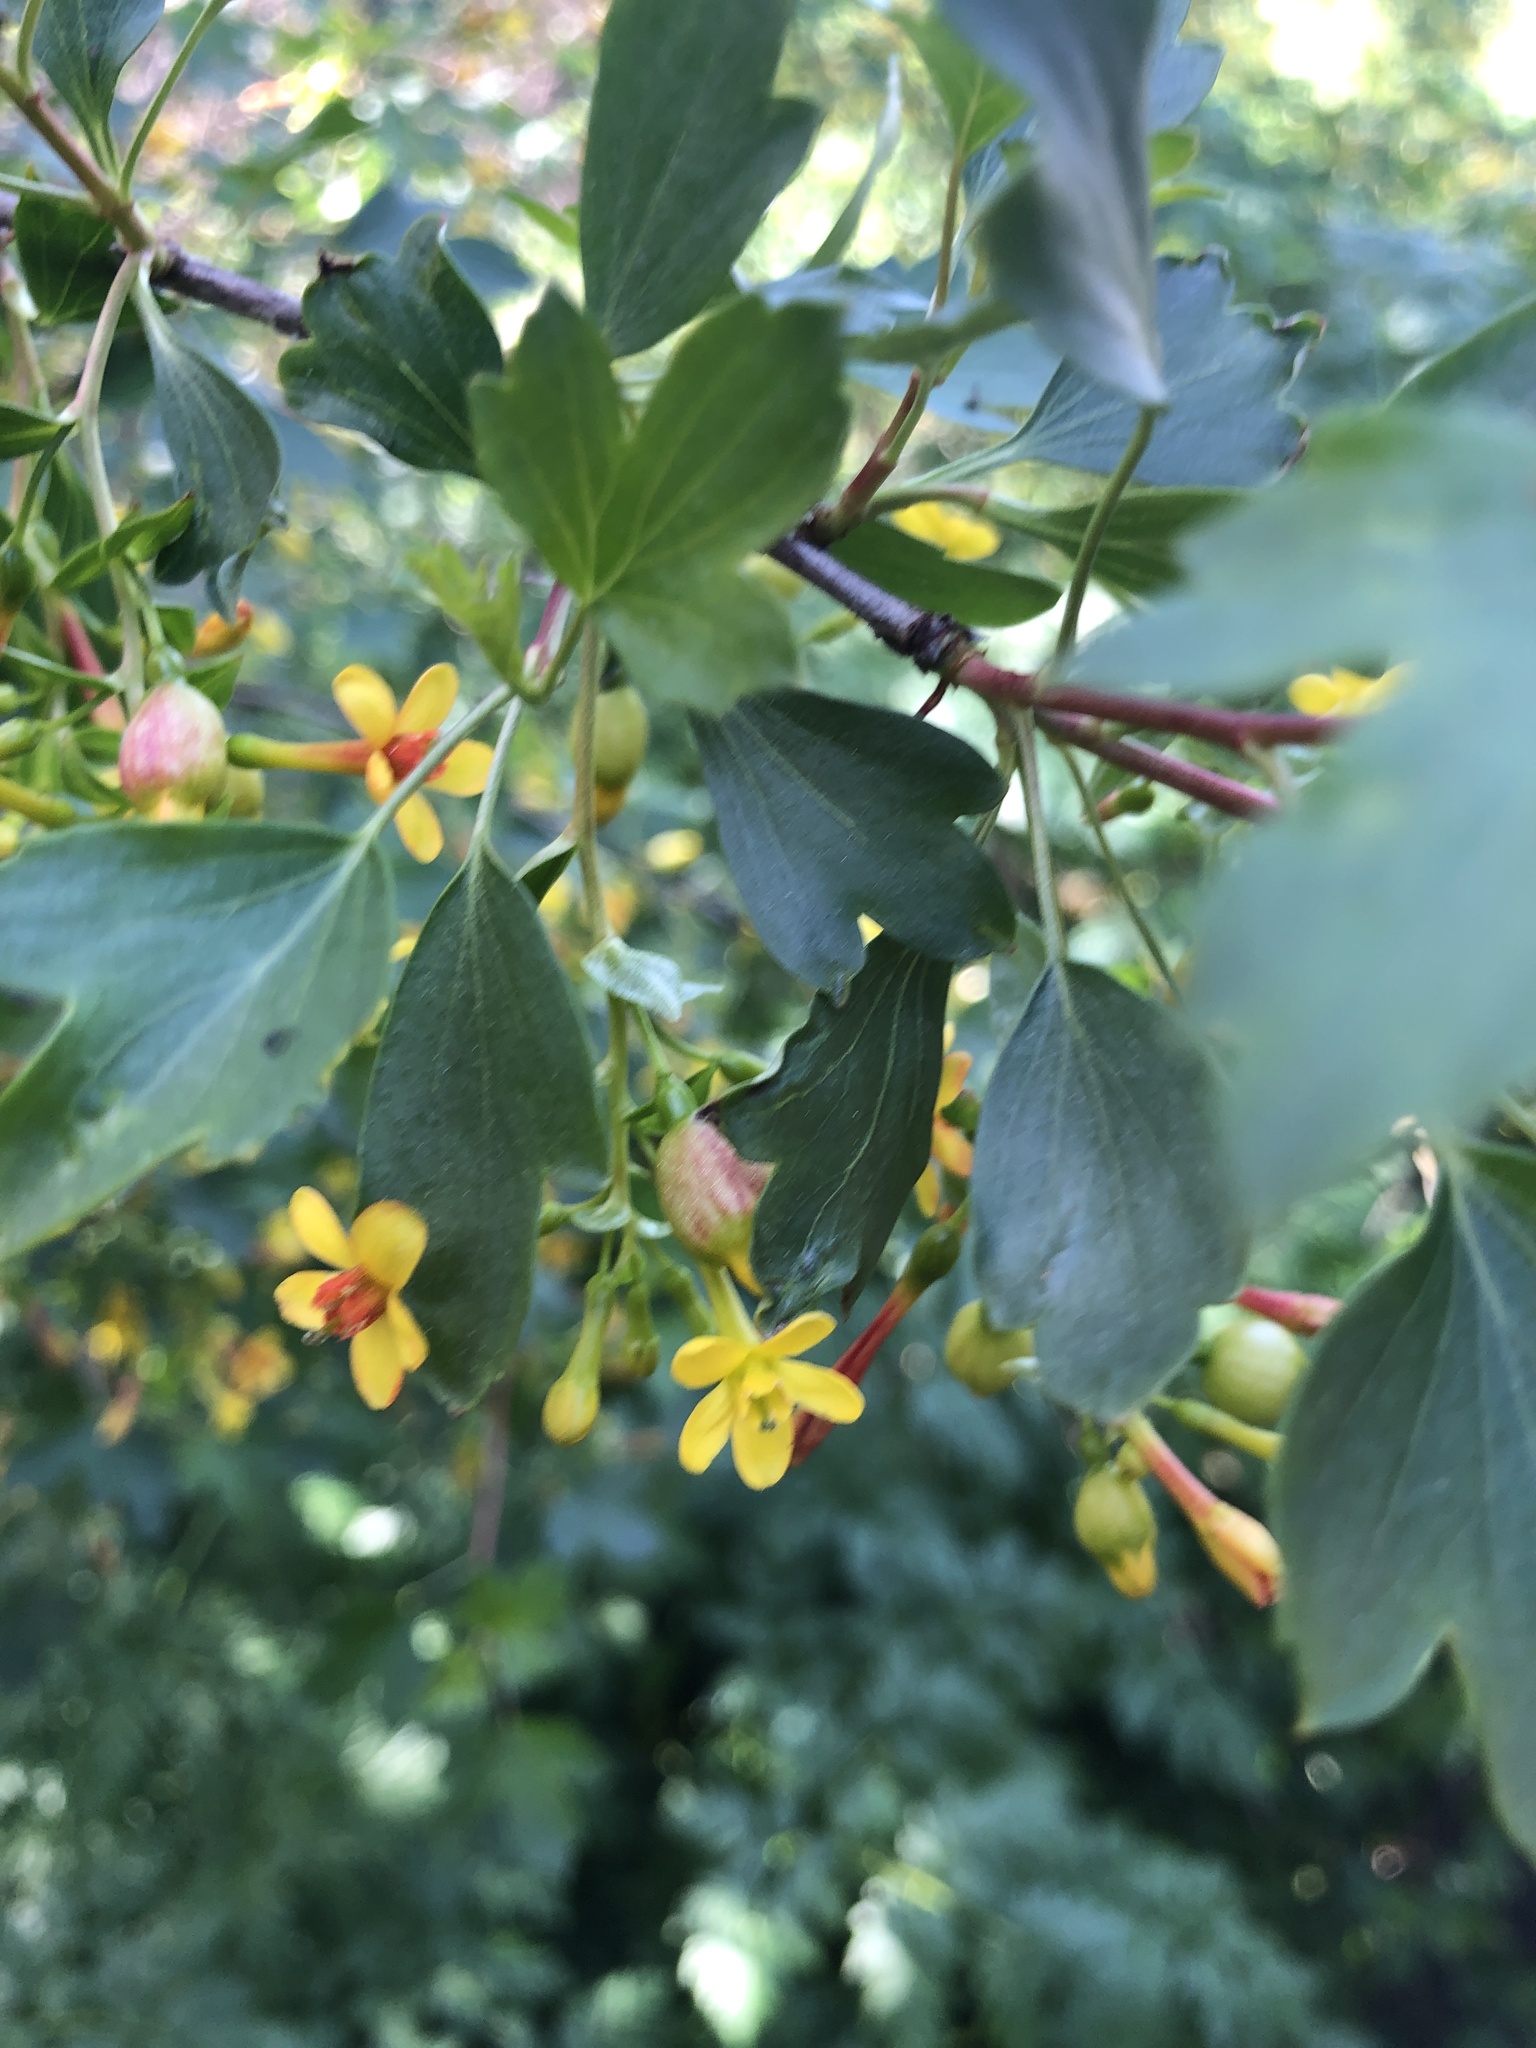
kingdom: Plantae
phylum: Tracheophyta
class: Magnoliopsida
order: Saxifragales
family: Grossulariaceae
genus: Ribes
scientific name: Ribes aureum
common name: Golden currant
